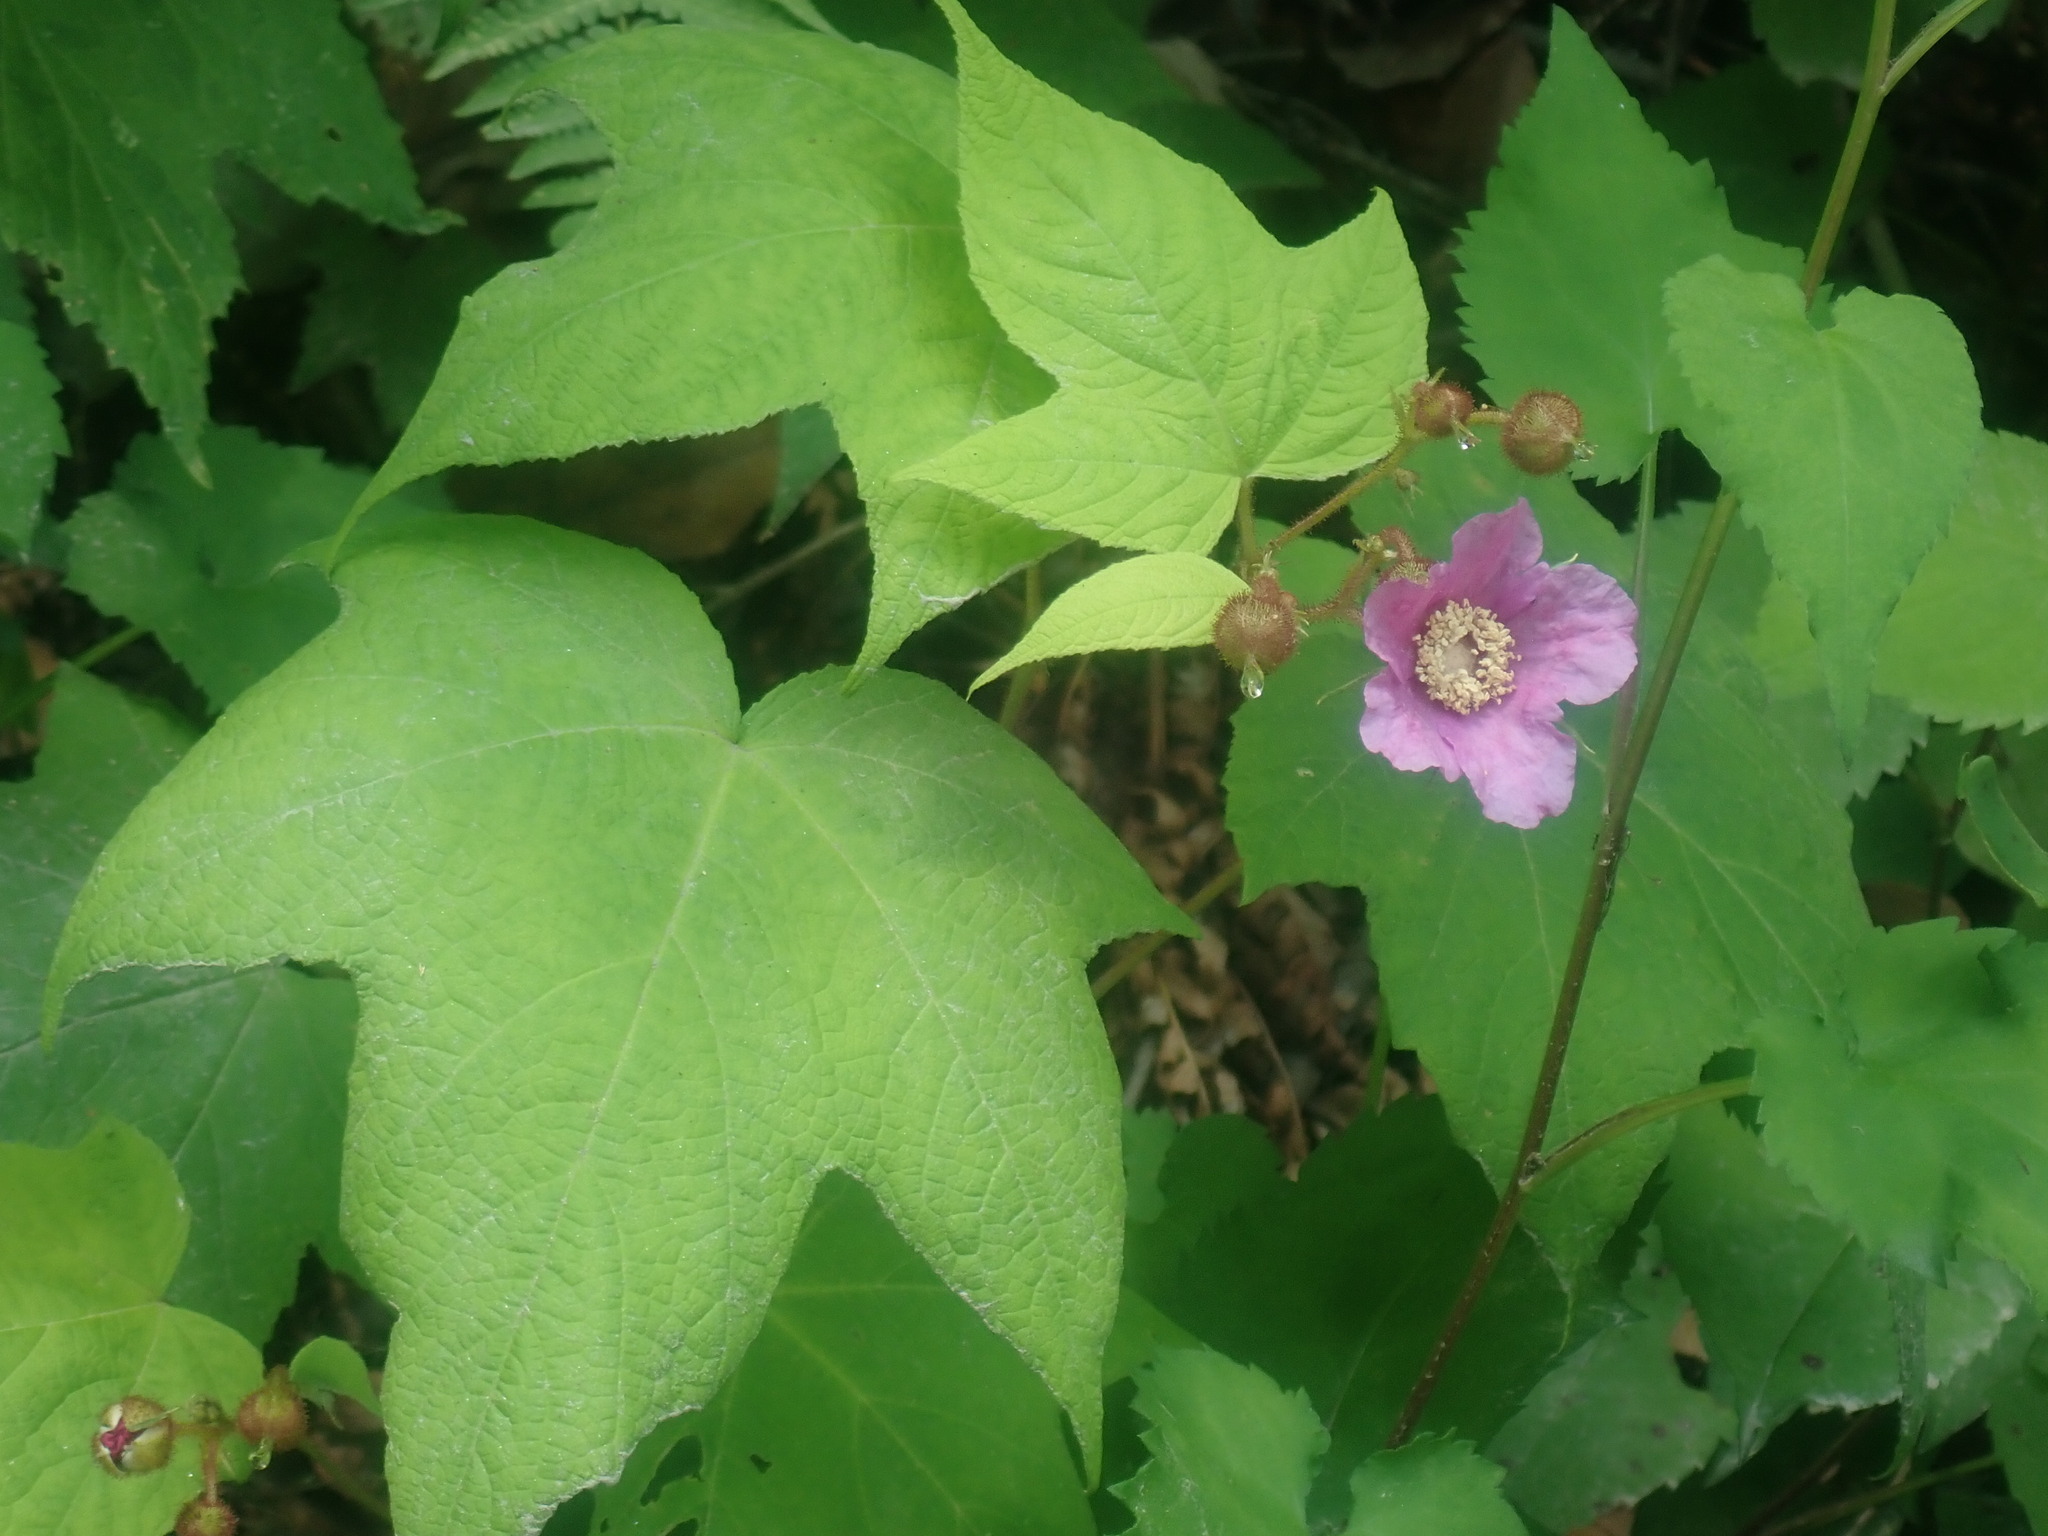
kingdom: Plantae
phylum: Tracheophyta
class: Magnoliopsida
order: Rosales
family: Rosaceae
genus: Rubus
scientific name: Rubus odoratus
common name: Purple-flowered raspberry
